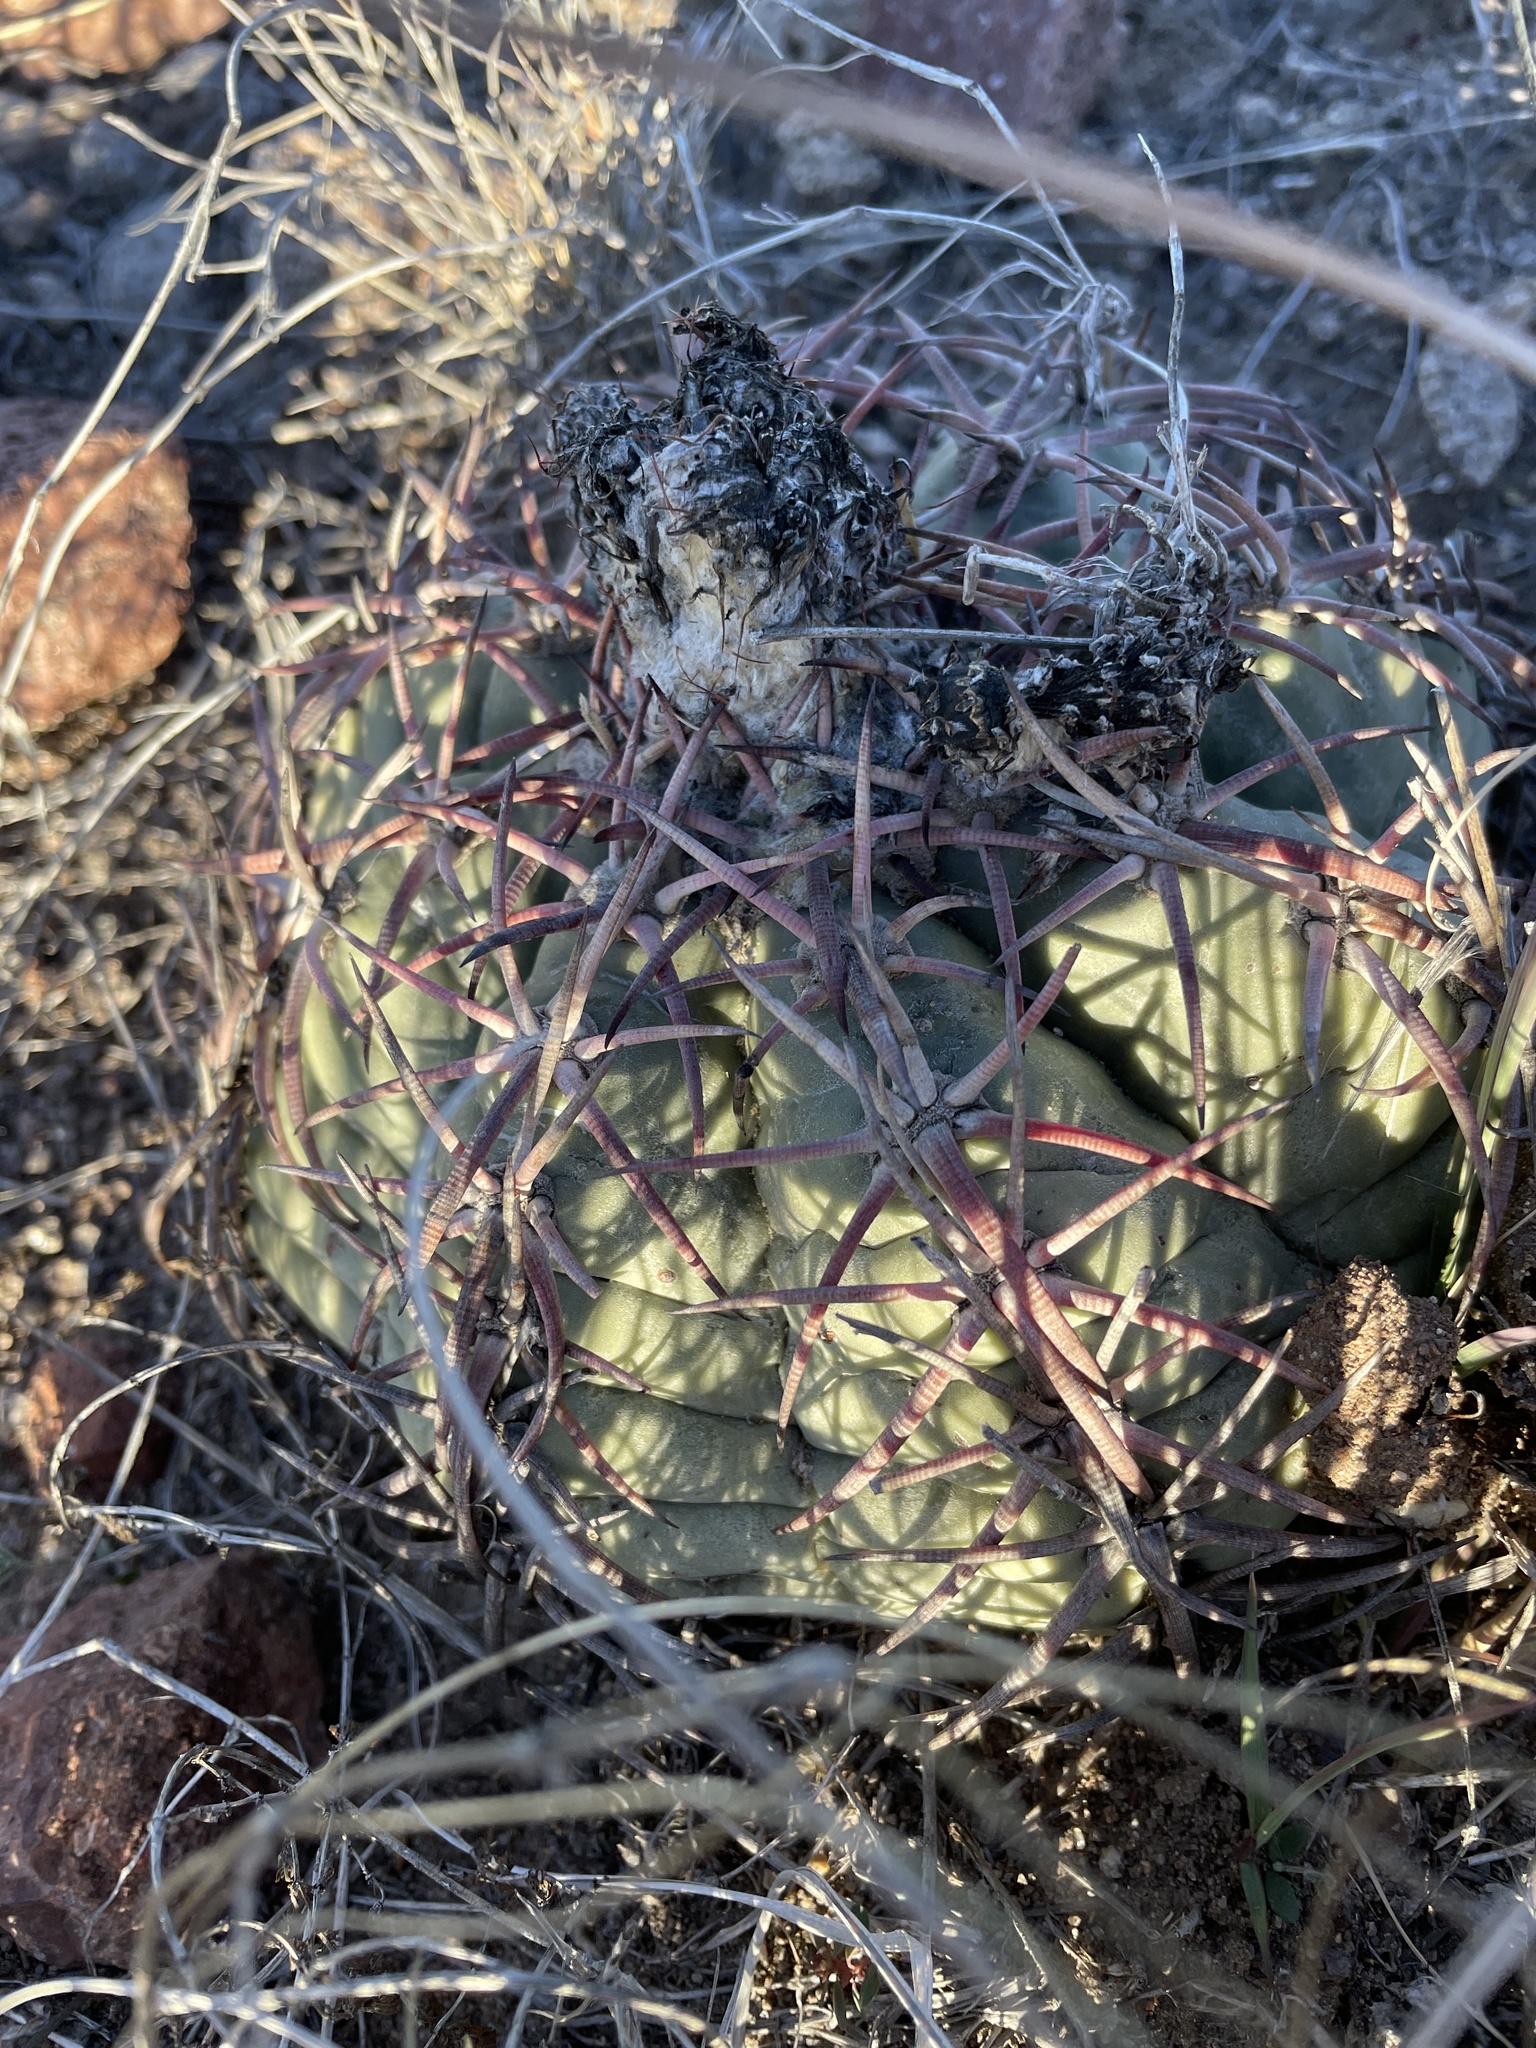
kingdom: Plantae
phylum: Tracheophyta
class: Magnoliopsida
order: Caryophyllales
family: Cactaceae
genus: Echinocactus
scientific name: Echinocactus horizonthalonius
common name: Devilshead
